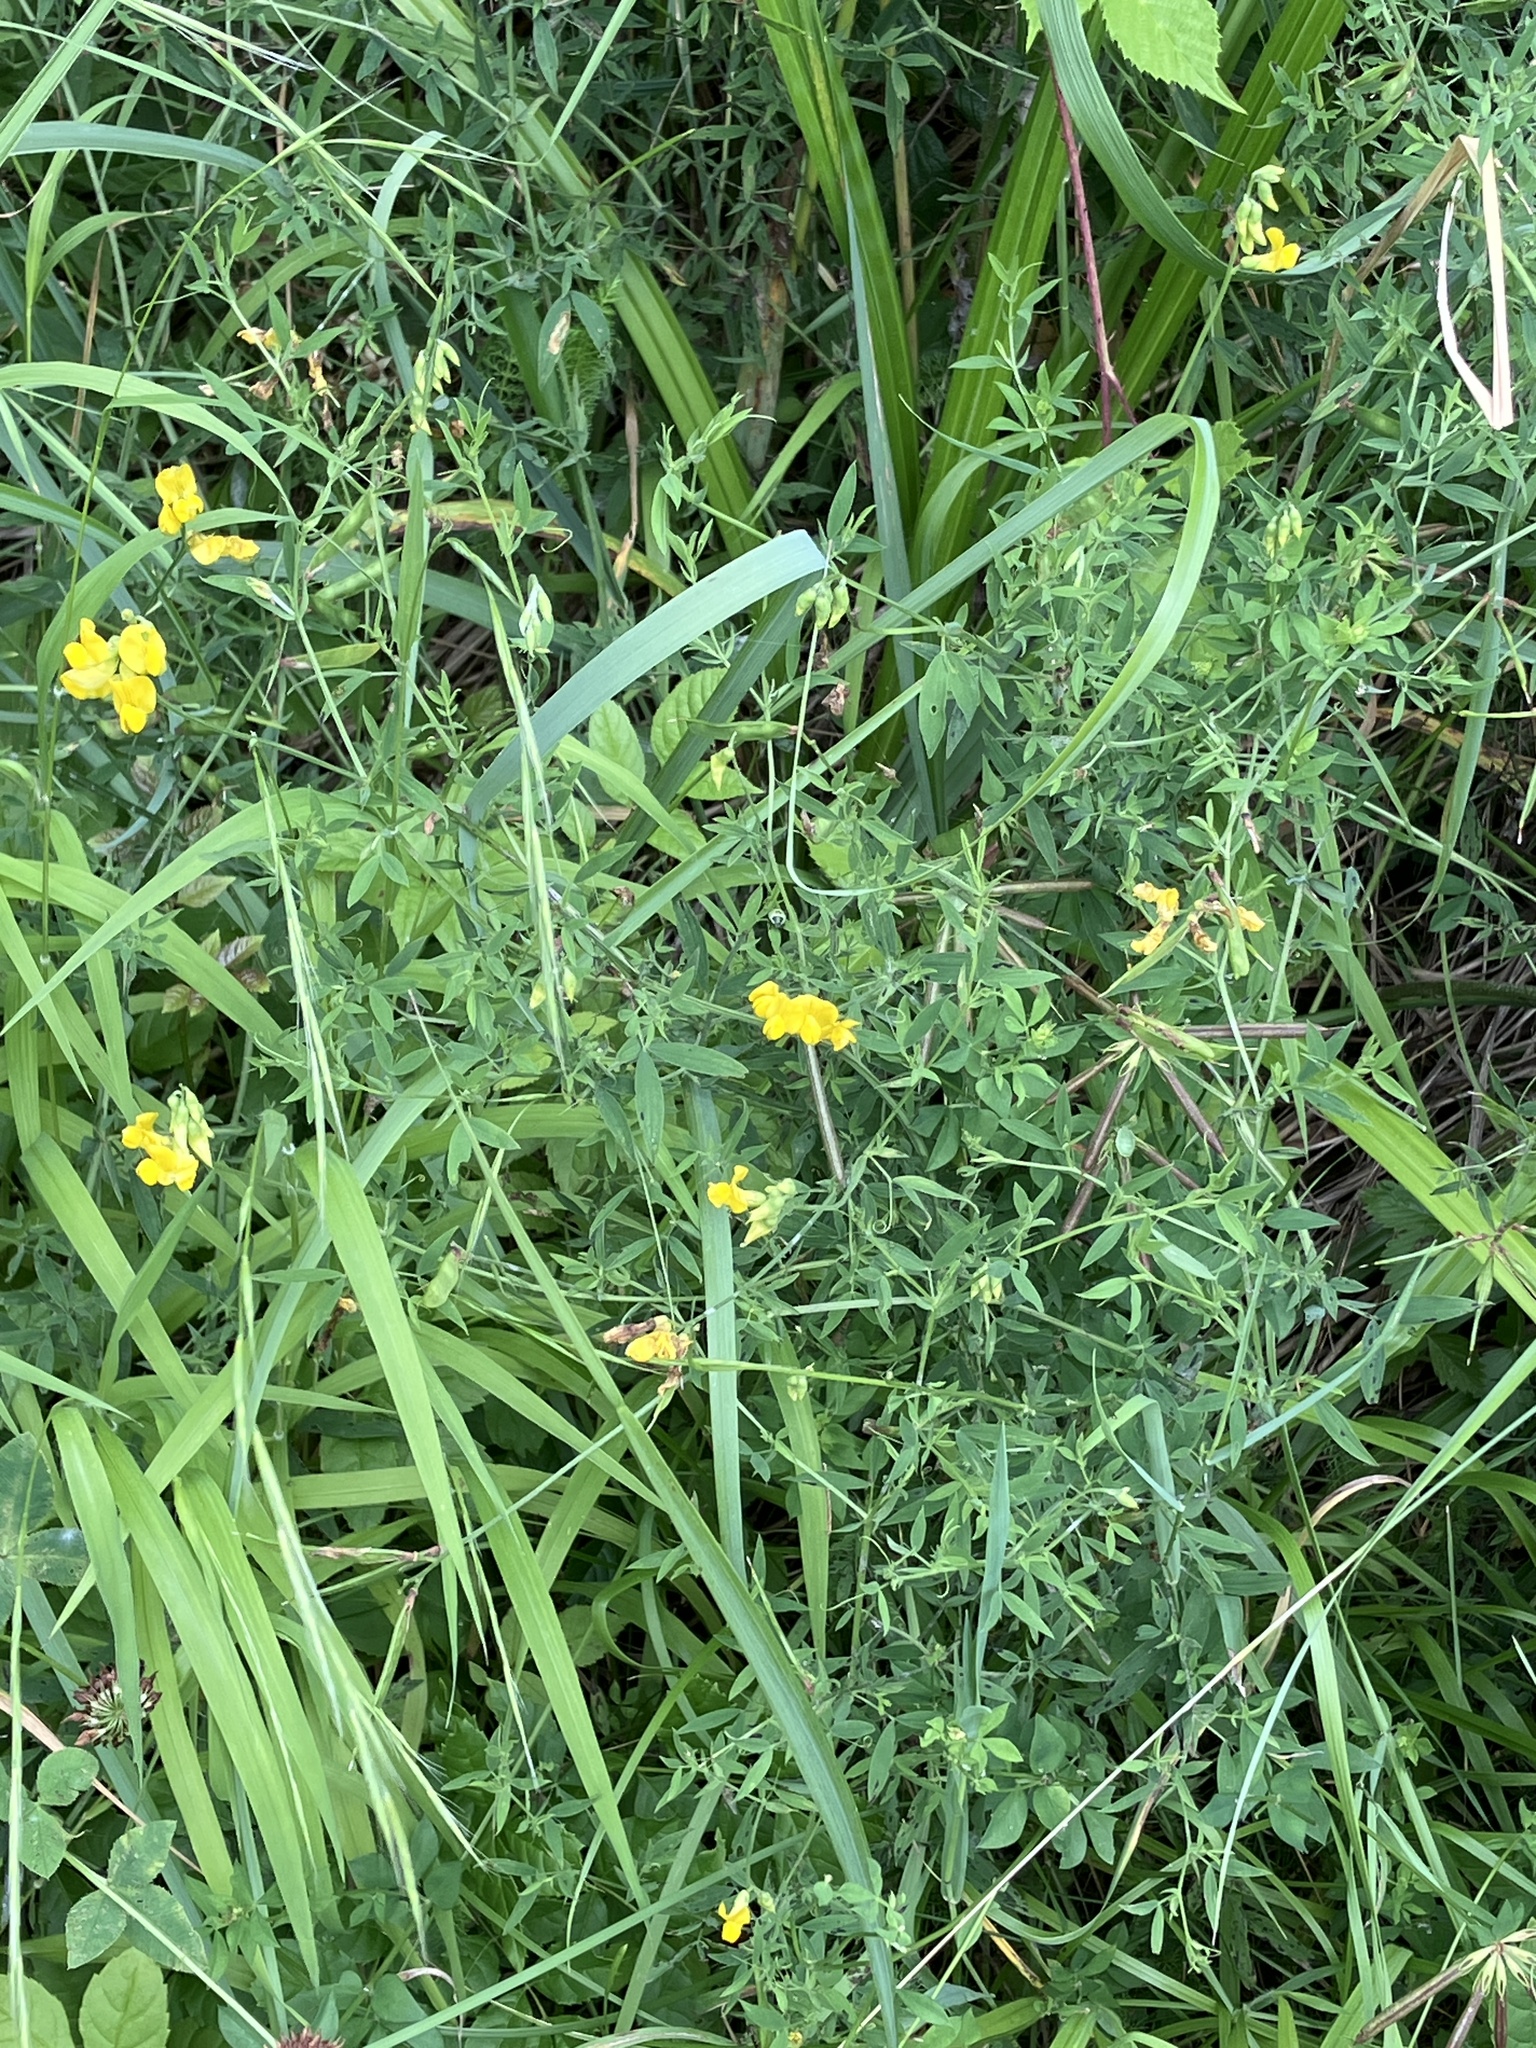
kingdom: Plantae
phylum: Tracheophyta
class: Magnoliopsida
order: Fabales
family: Fabaceae
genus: Lathyrus
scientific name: Lathyrus pratensis
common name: Meadow vetchling
